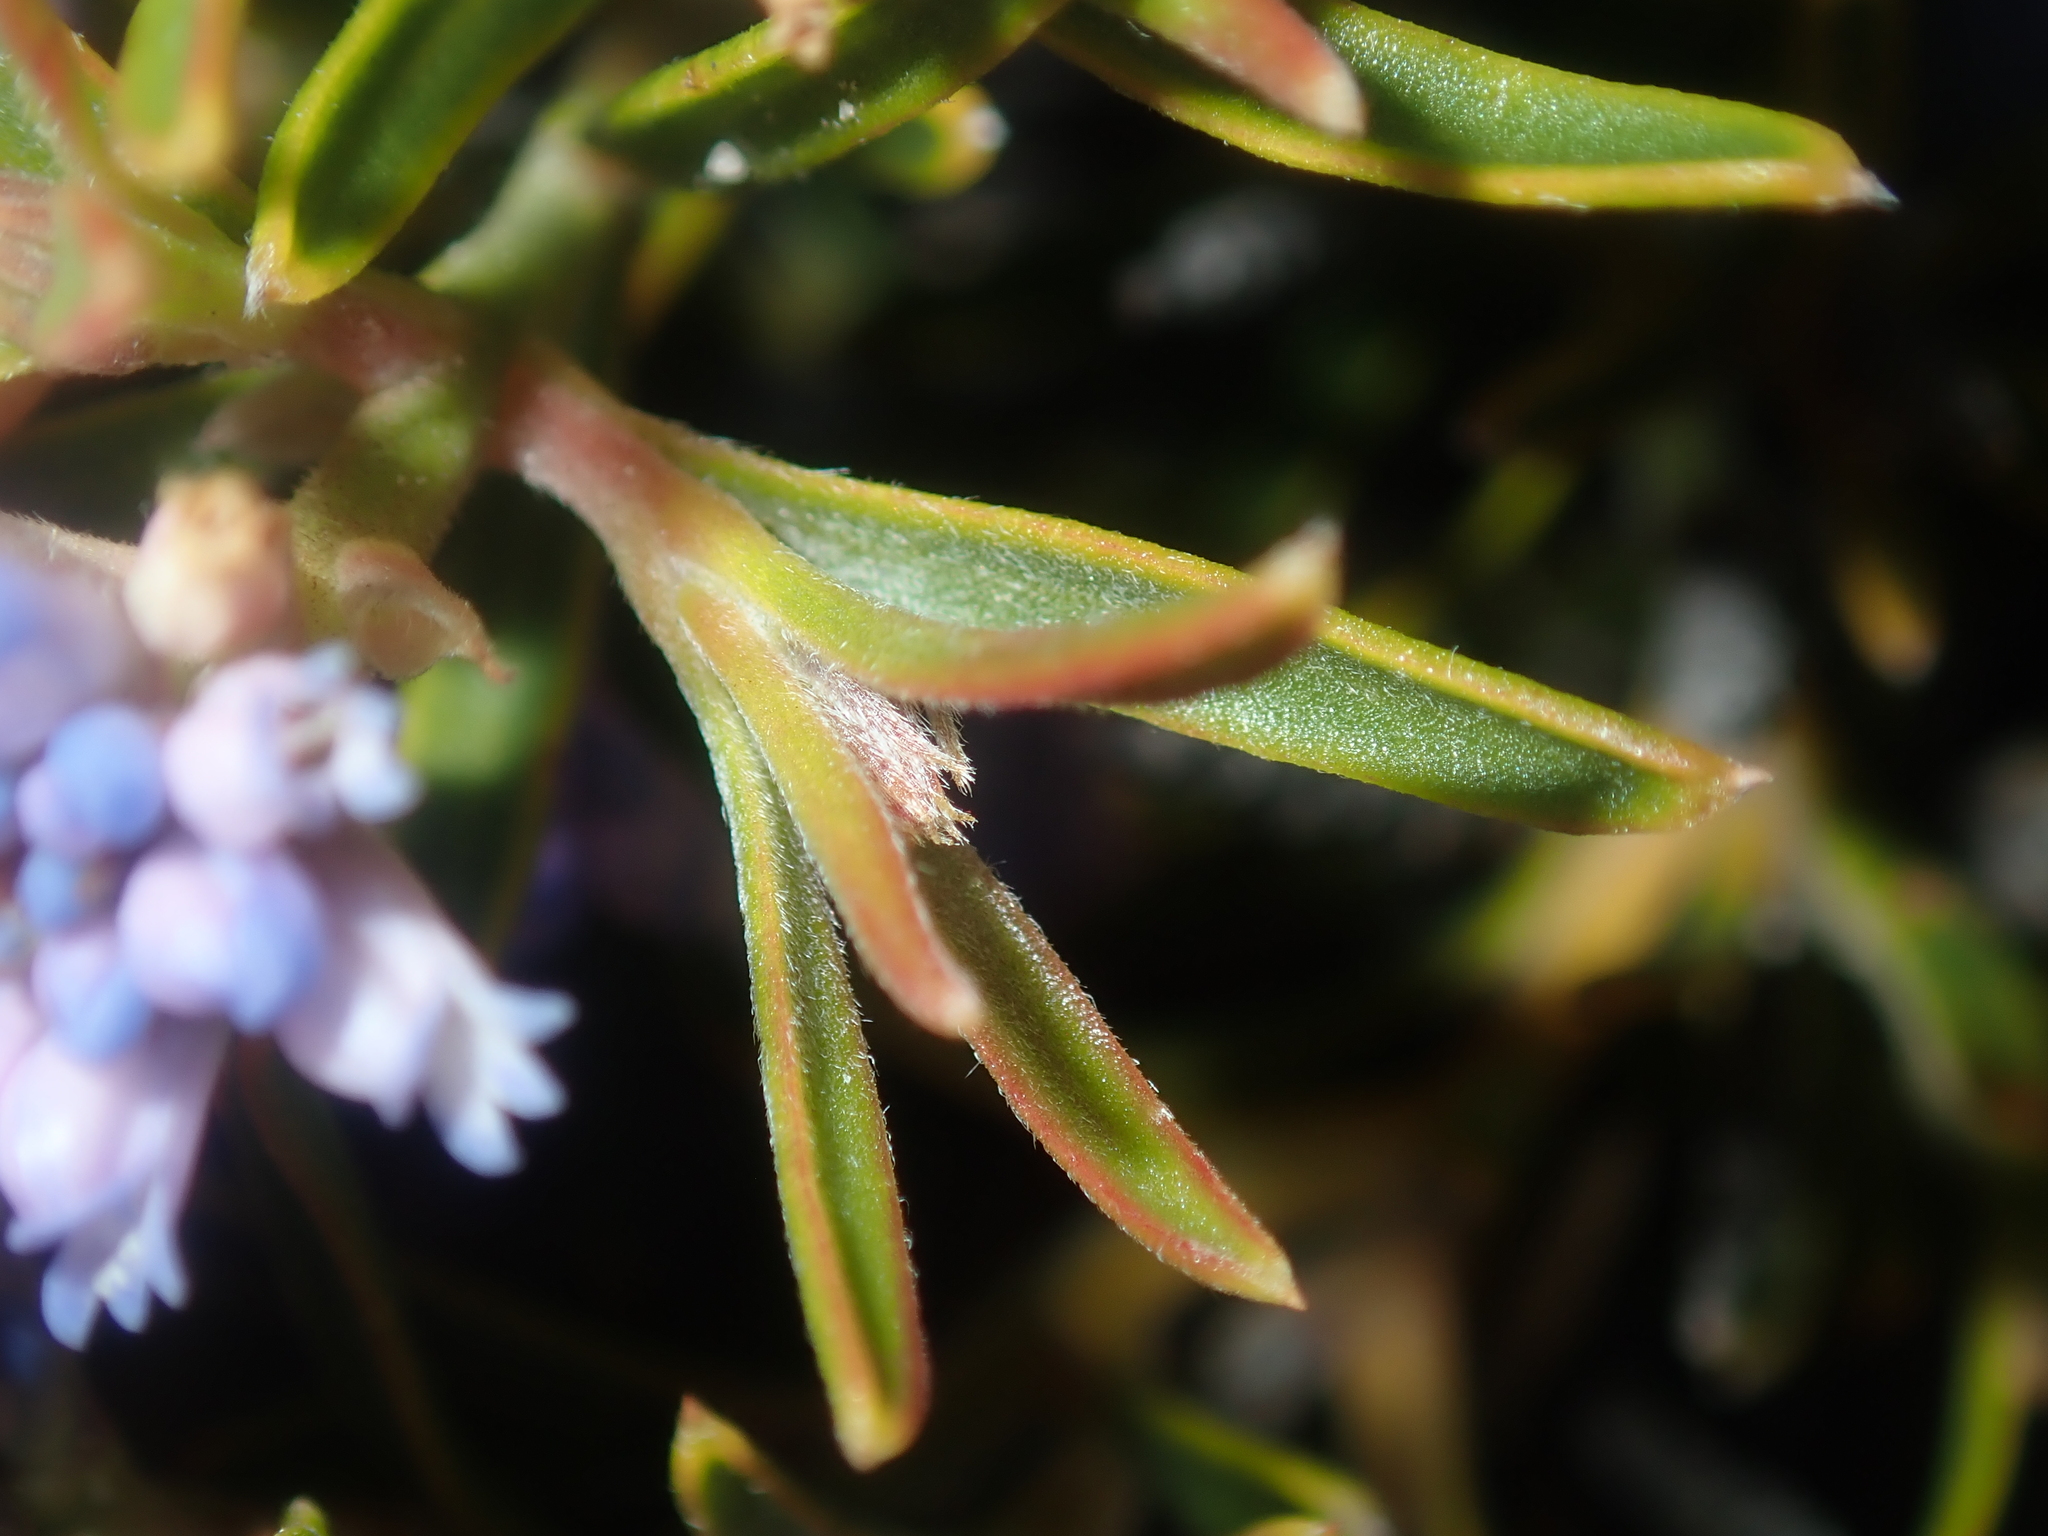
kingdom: Plantae
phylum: Tracheophyta
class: Magnoliopsida
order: Proteales
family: Proteaceae
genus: Conospermum
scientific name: Conospermum nervosum
